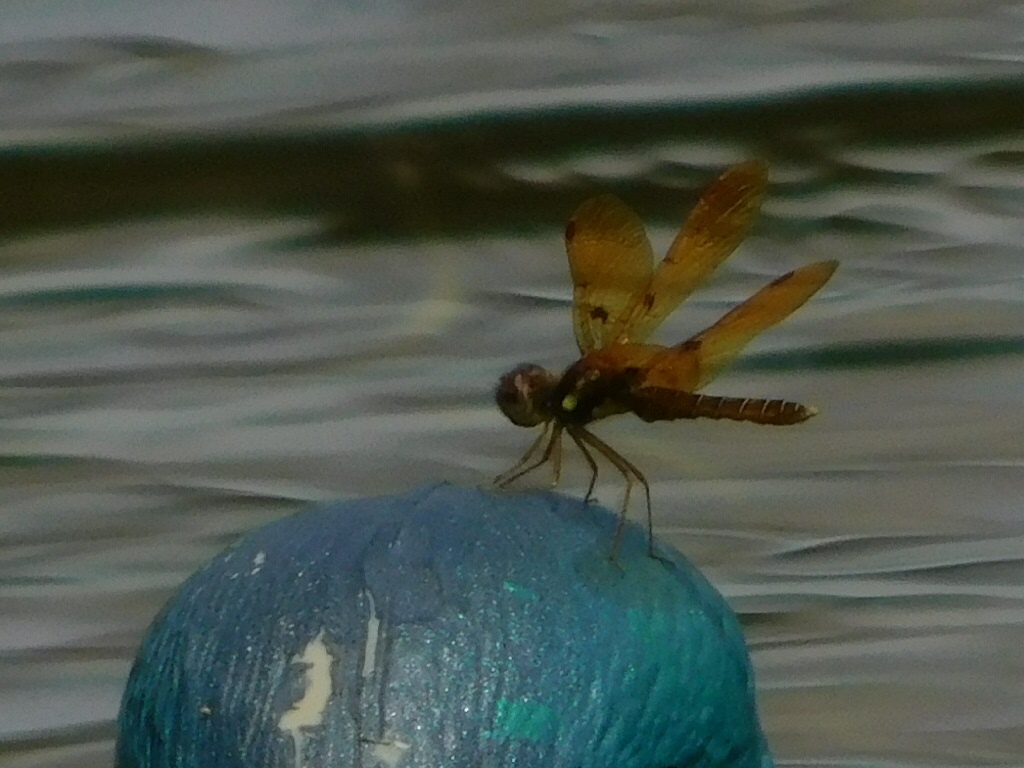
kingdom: Animalia
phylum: Arthropoda
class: Insecta
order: Odonata
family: Libellulidae
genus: Perithemis
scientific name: Perithemis tenera
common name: Eastern amberwing
